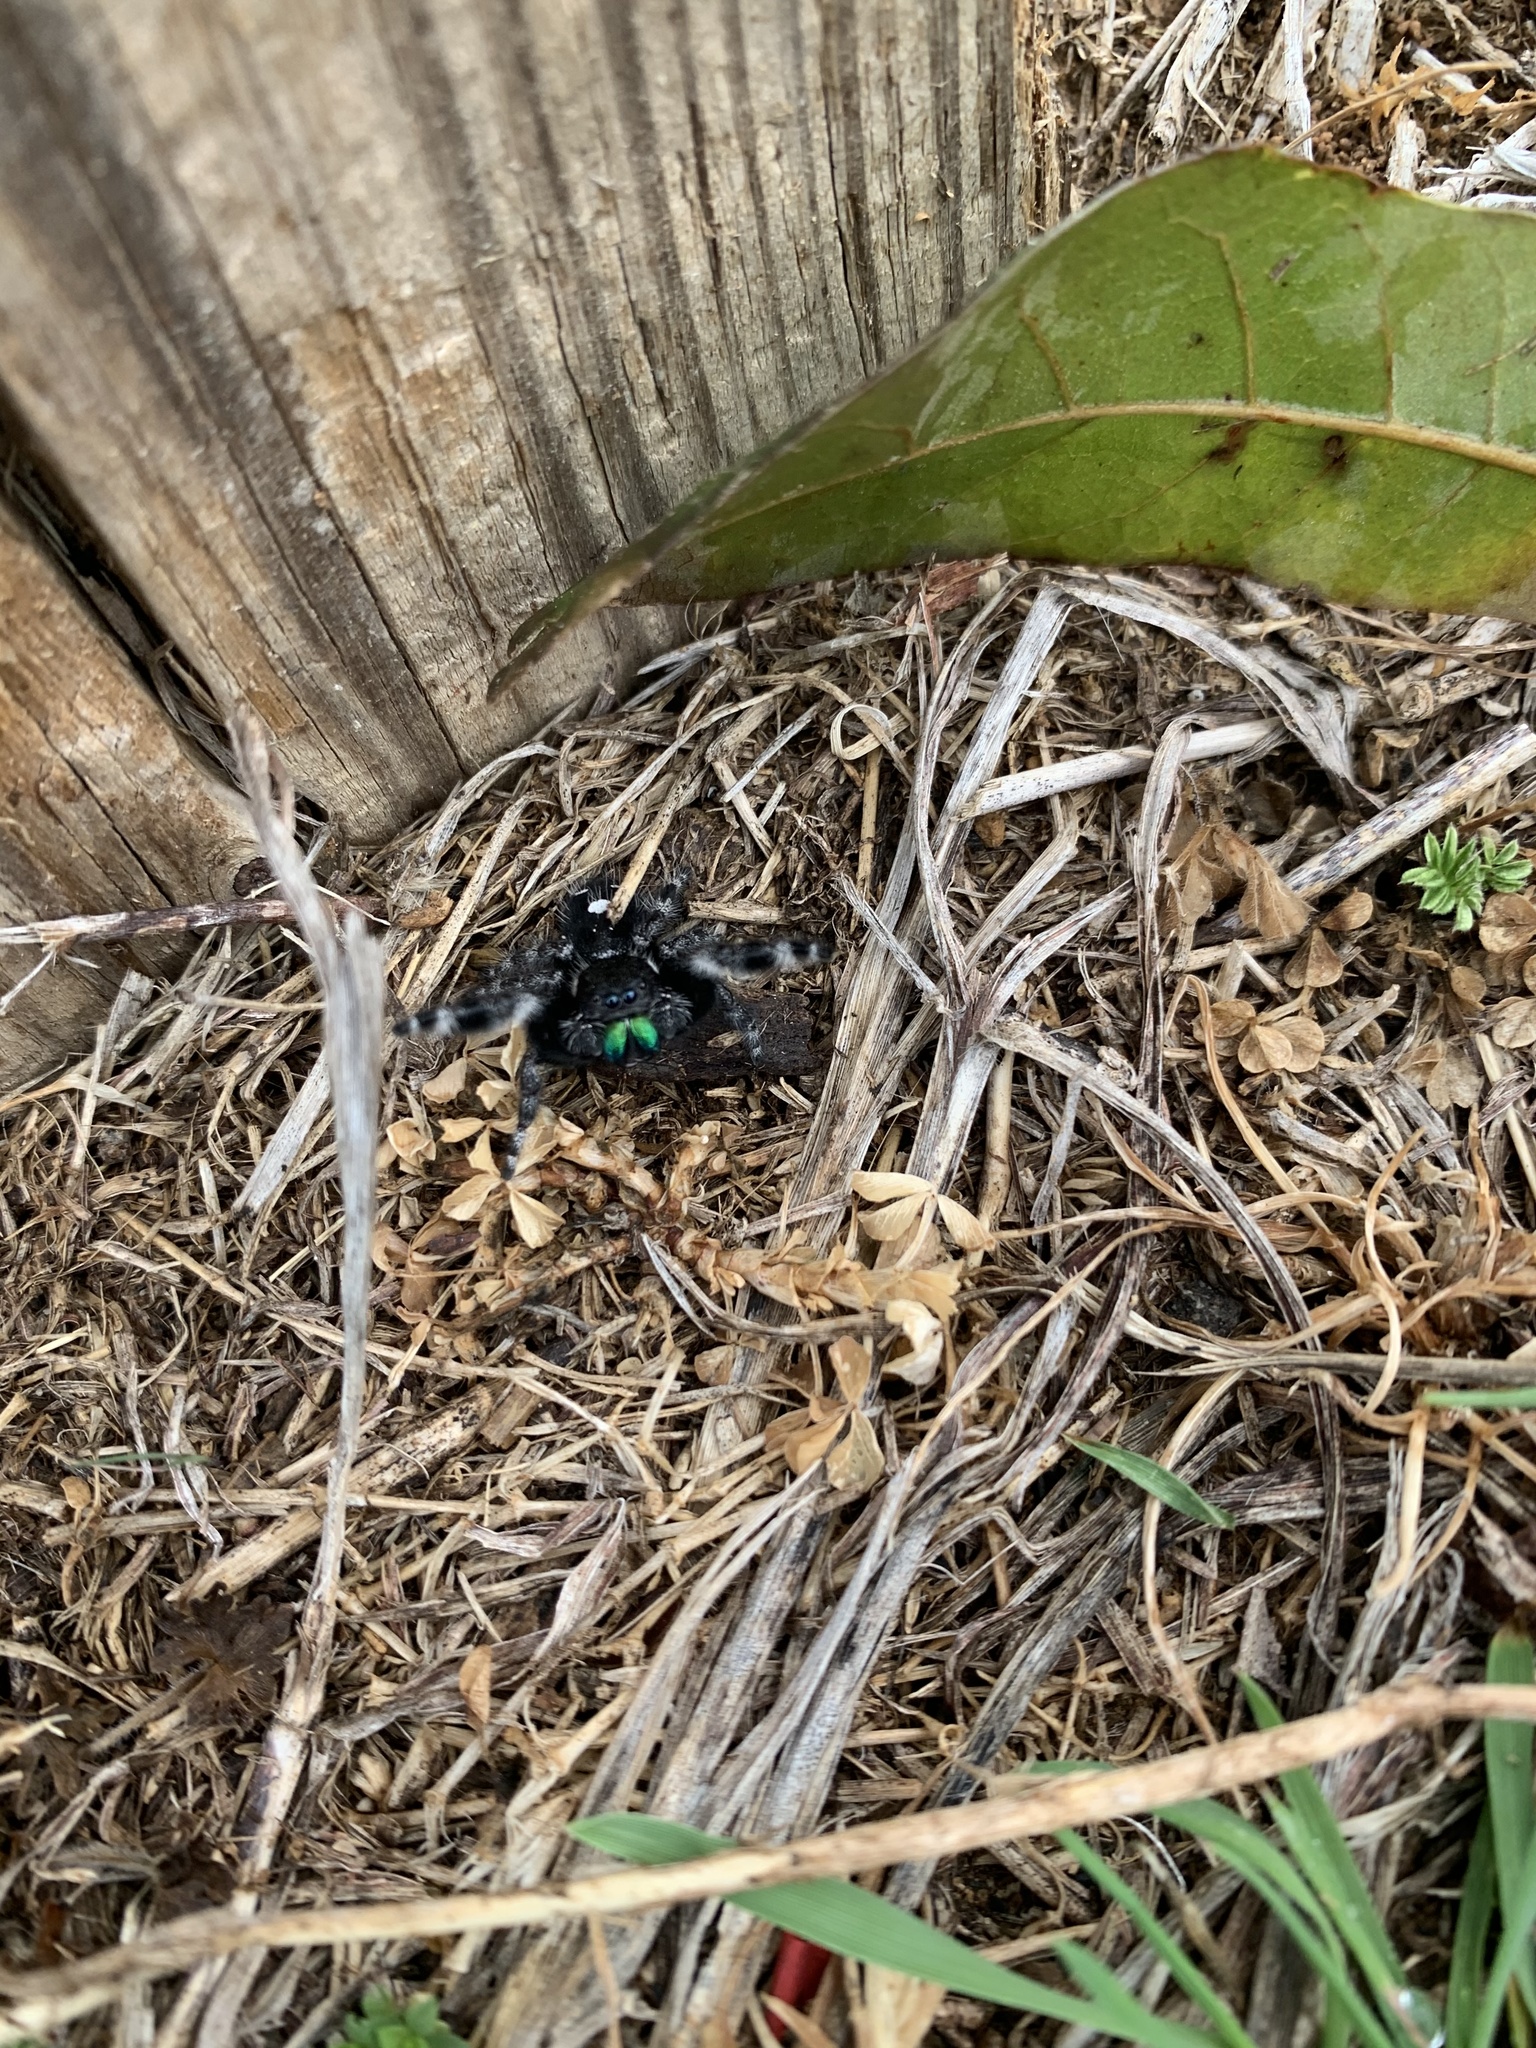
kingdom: Animalia
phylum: Arthropoda
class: Arachnida
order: Araneae
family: Salticidae
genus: Phidippus
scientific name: Phidippus audax
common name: Bold jumper
